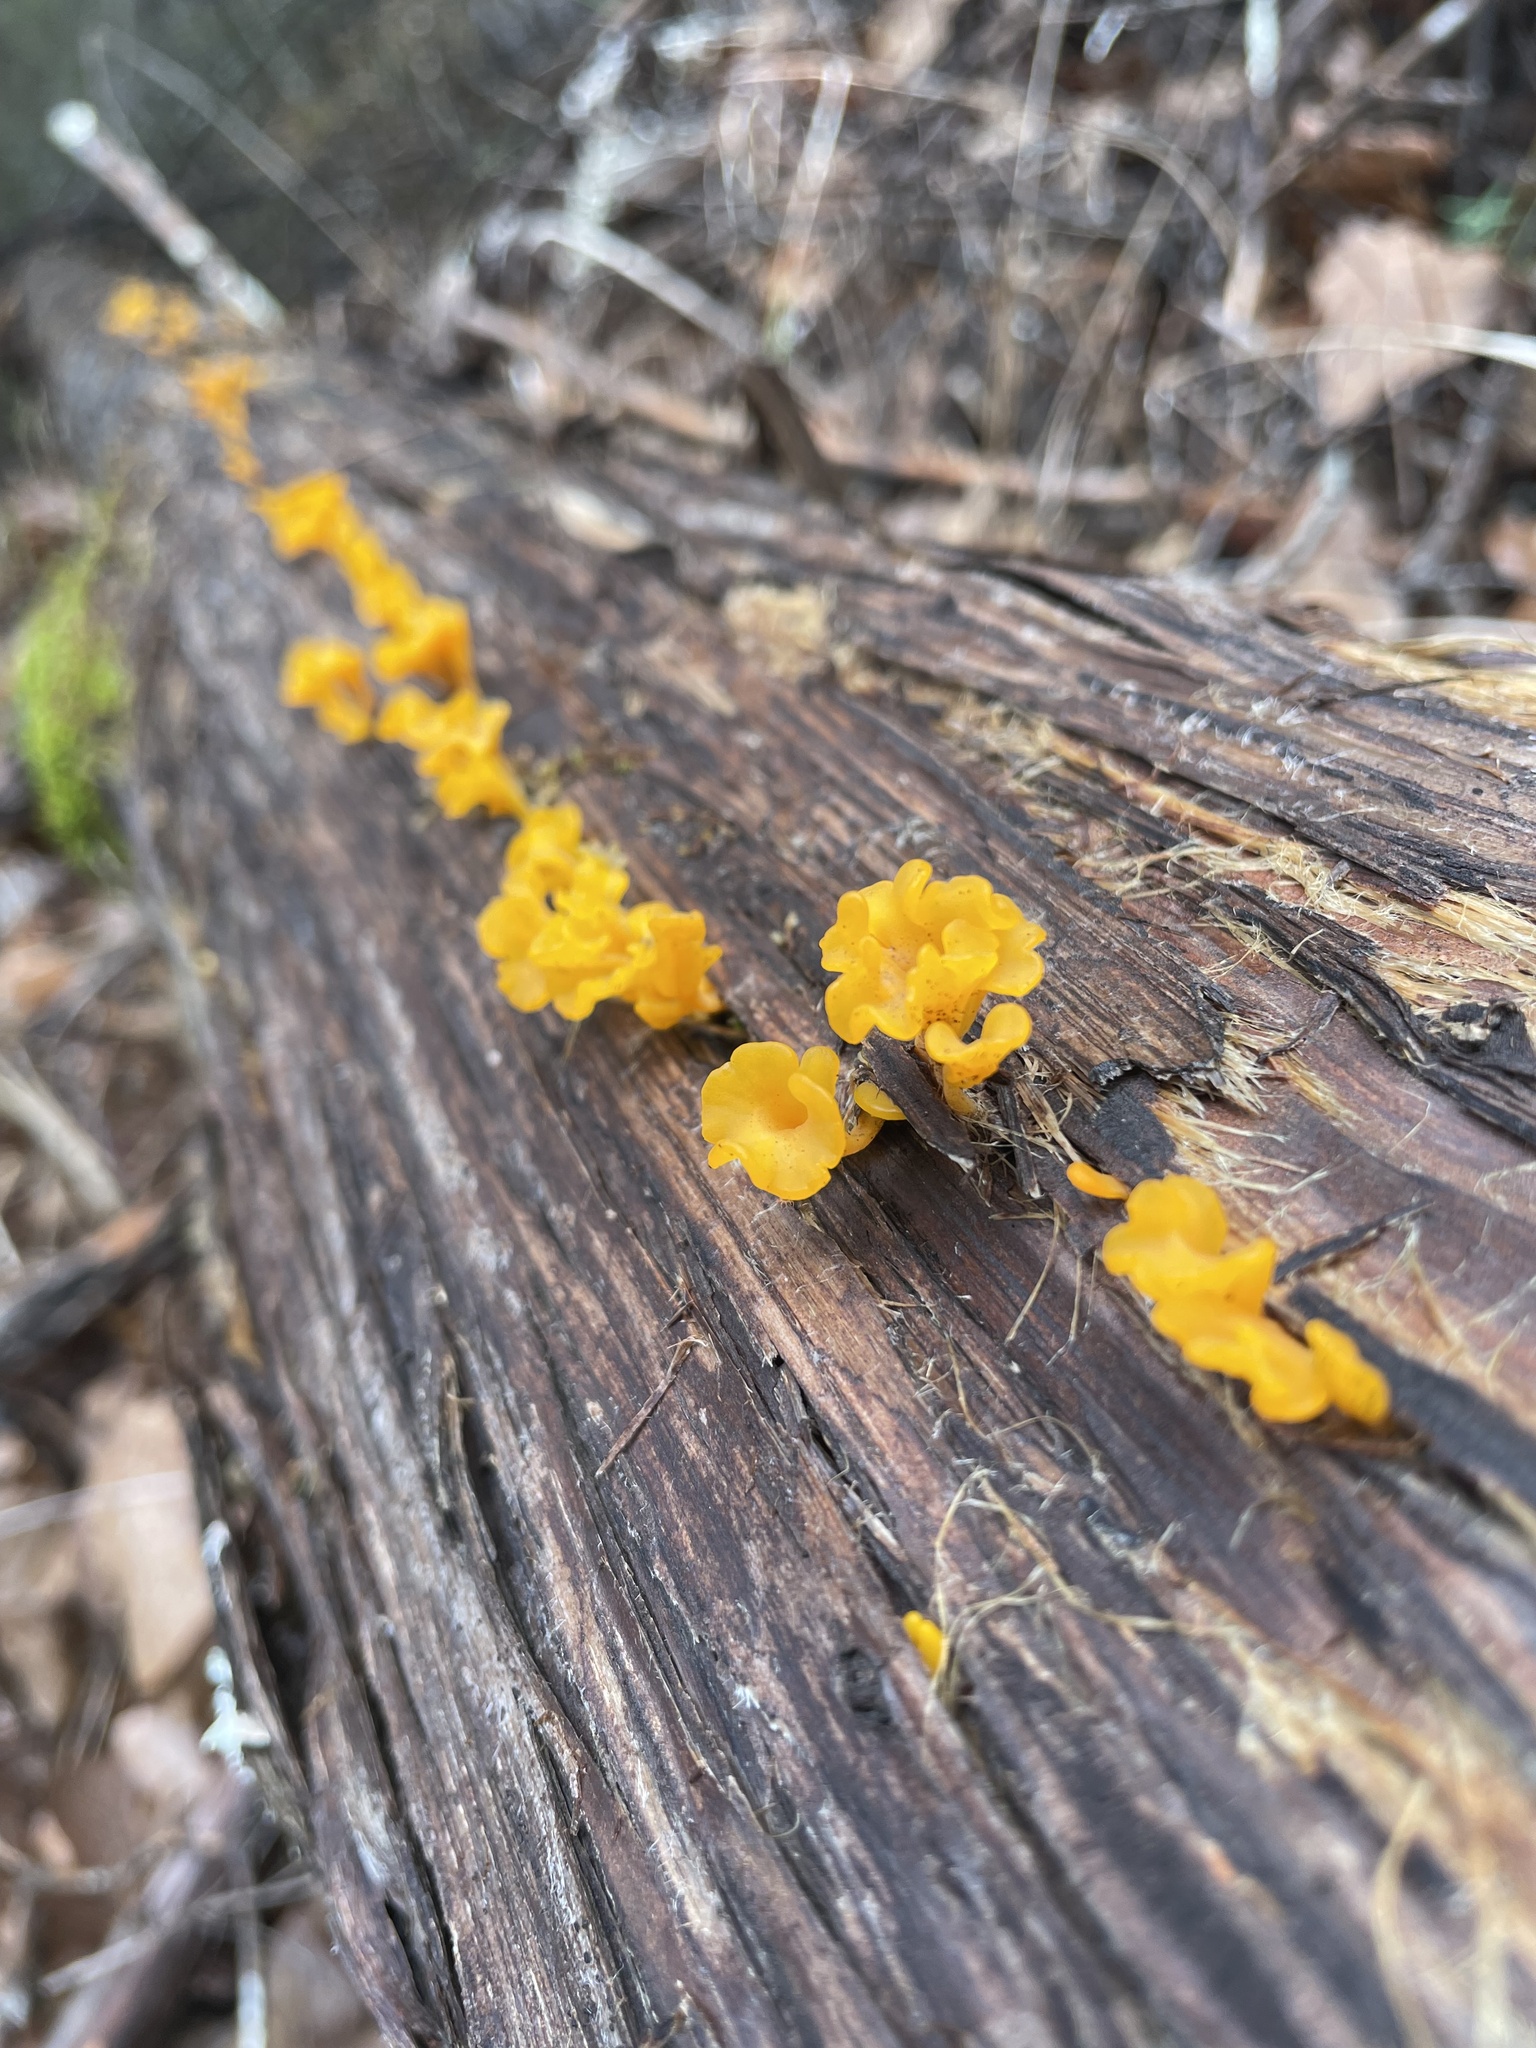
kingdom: Fungi
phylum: Basidiomycota
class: Dacrymycetes
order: Dacrymycetales
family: Dacrymycetaceae
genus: Dacrymyces
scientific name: Dacrymyces spathularius
